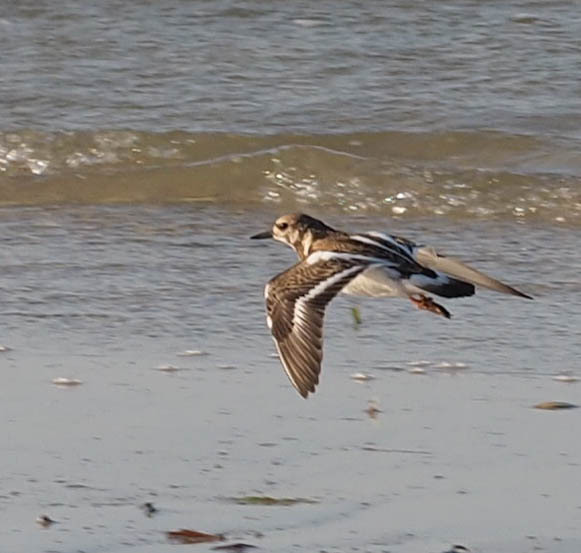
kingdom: Animalia
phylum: Chordata
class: Aves
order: Charadriiformes
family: Scolopacidae
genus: Arenaria
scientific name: Arenaria interpres
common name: Ruddy turnstone
